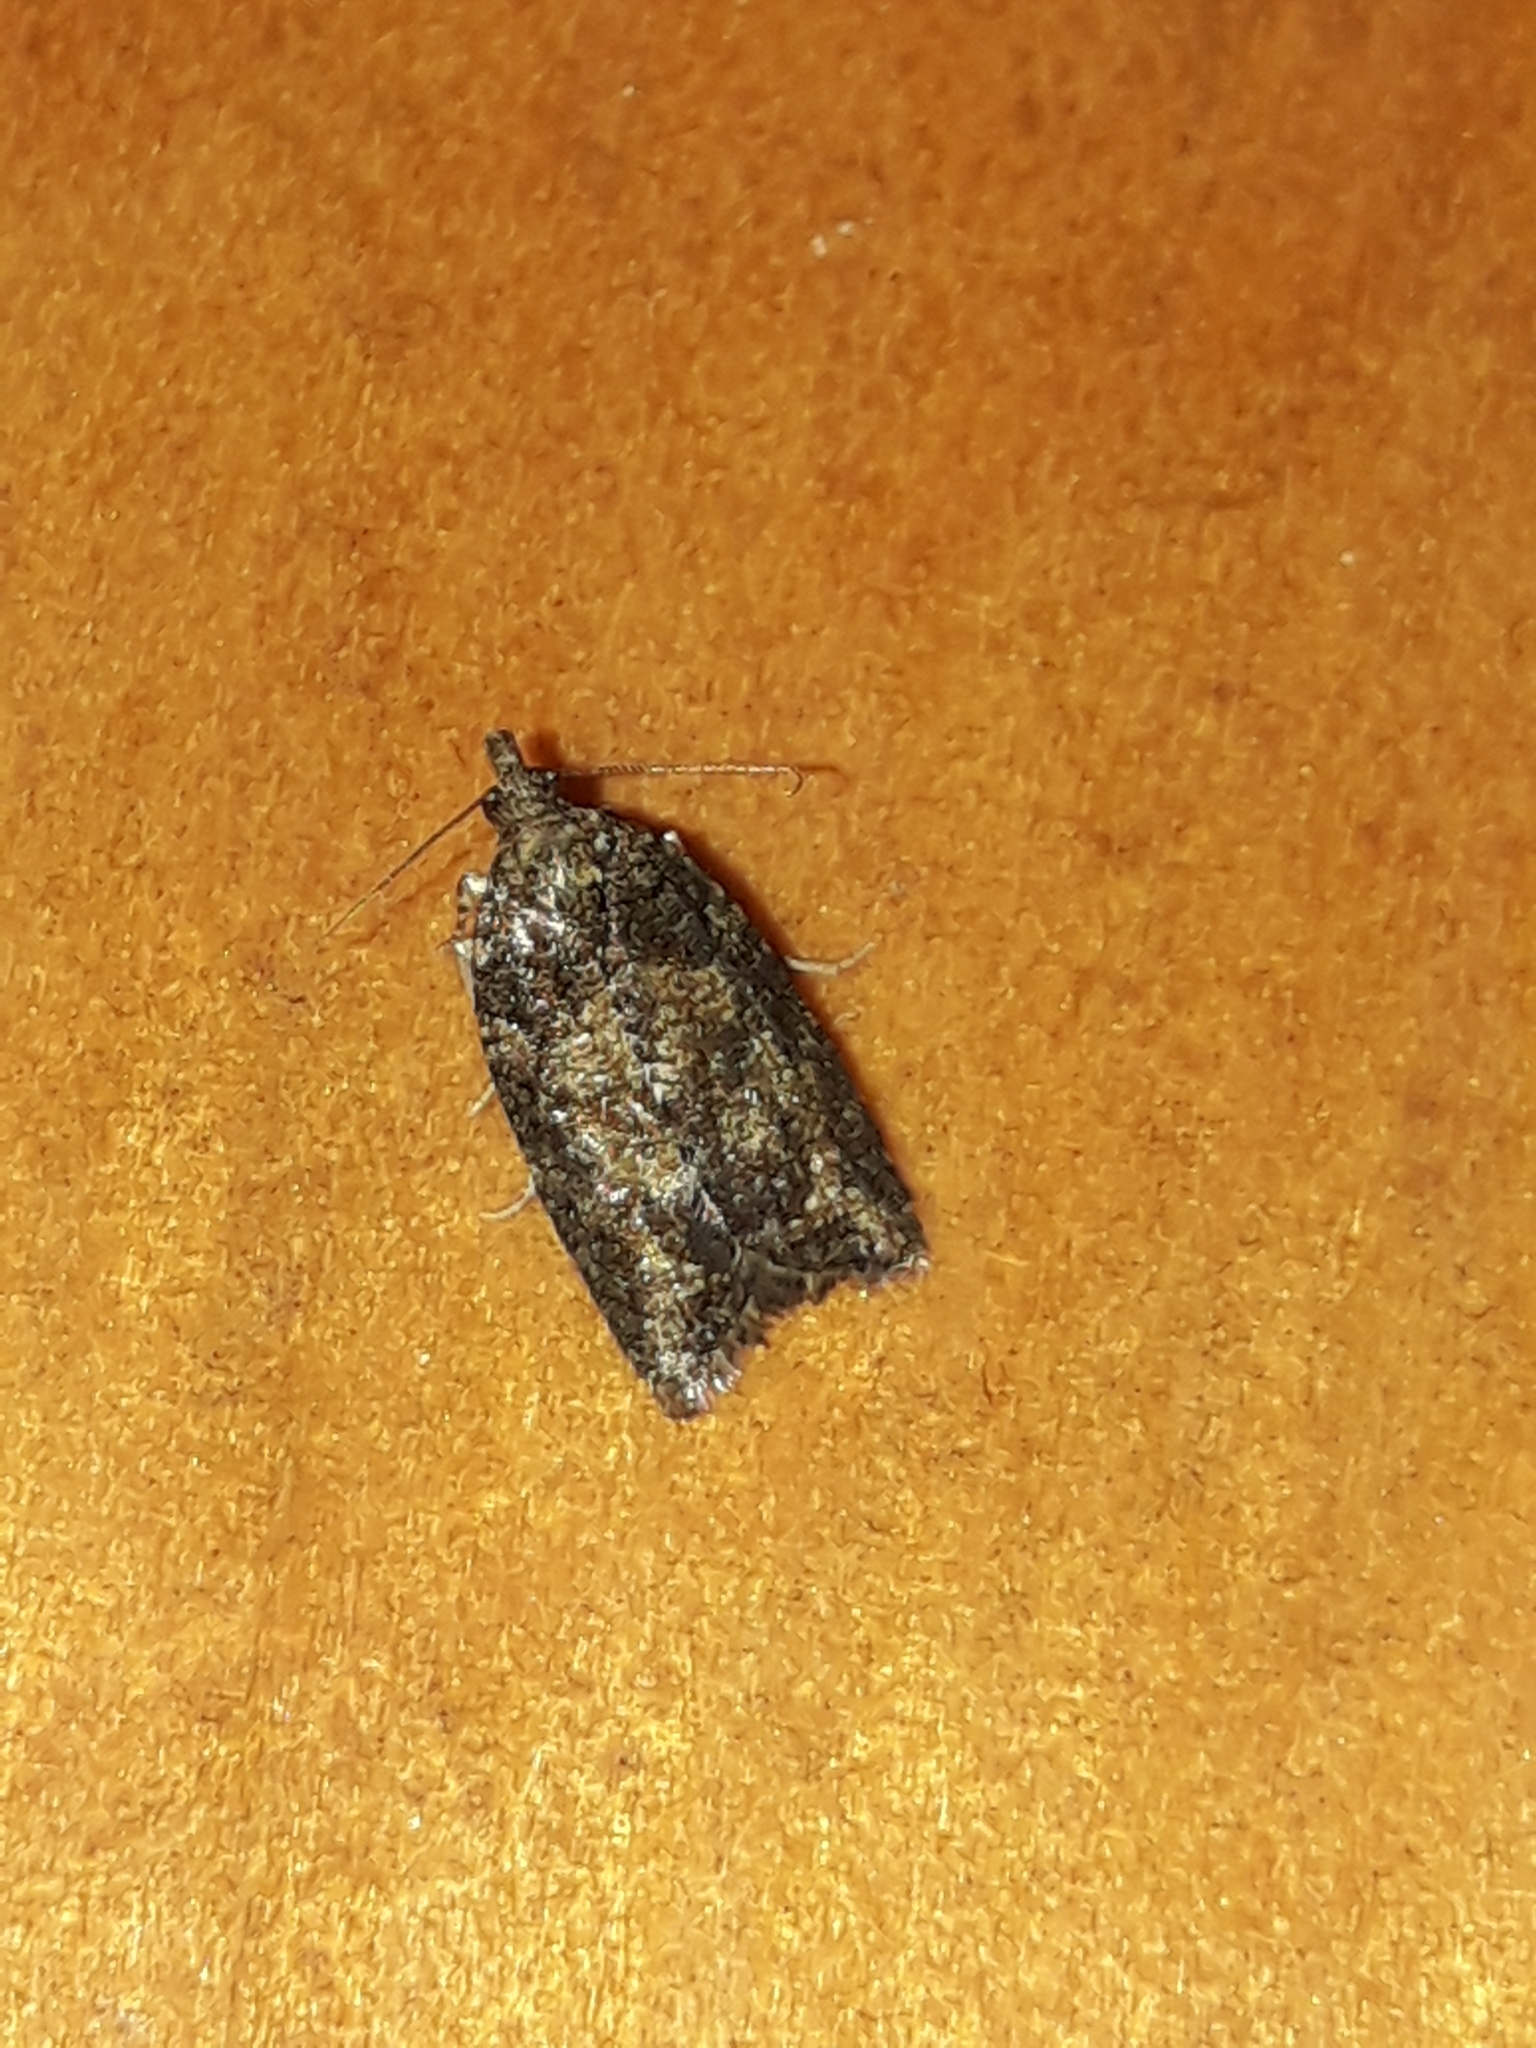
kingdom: Animalia
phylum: Arthropoda
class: Insecta
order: Lepidoptera
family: Tortricidae
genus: Capua
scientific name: Capua intractana
